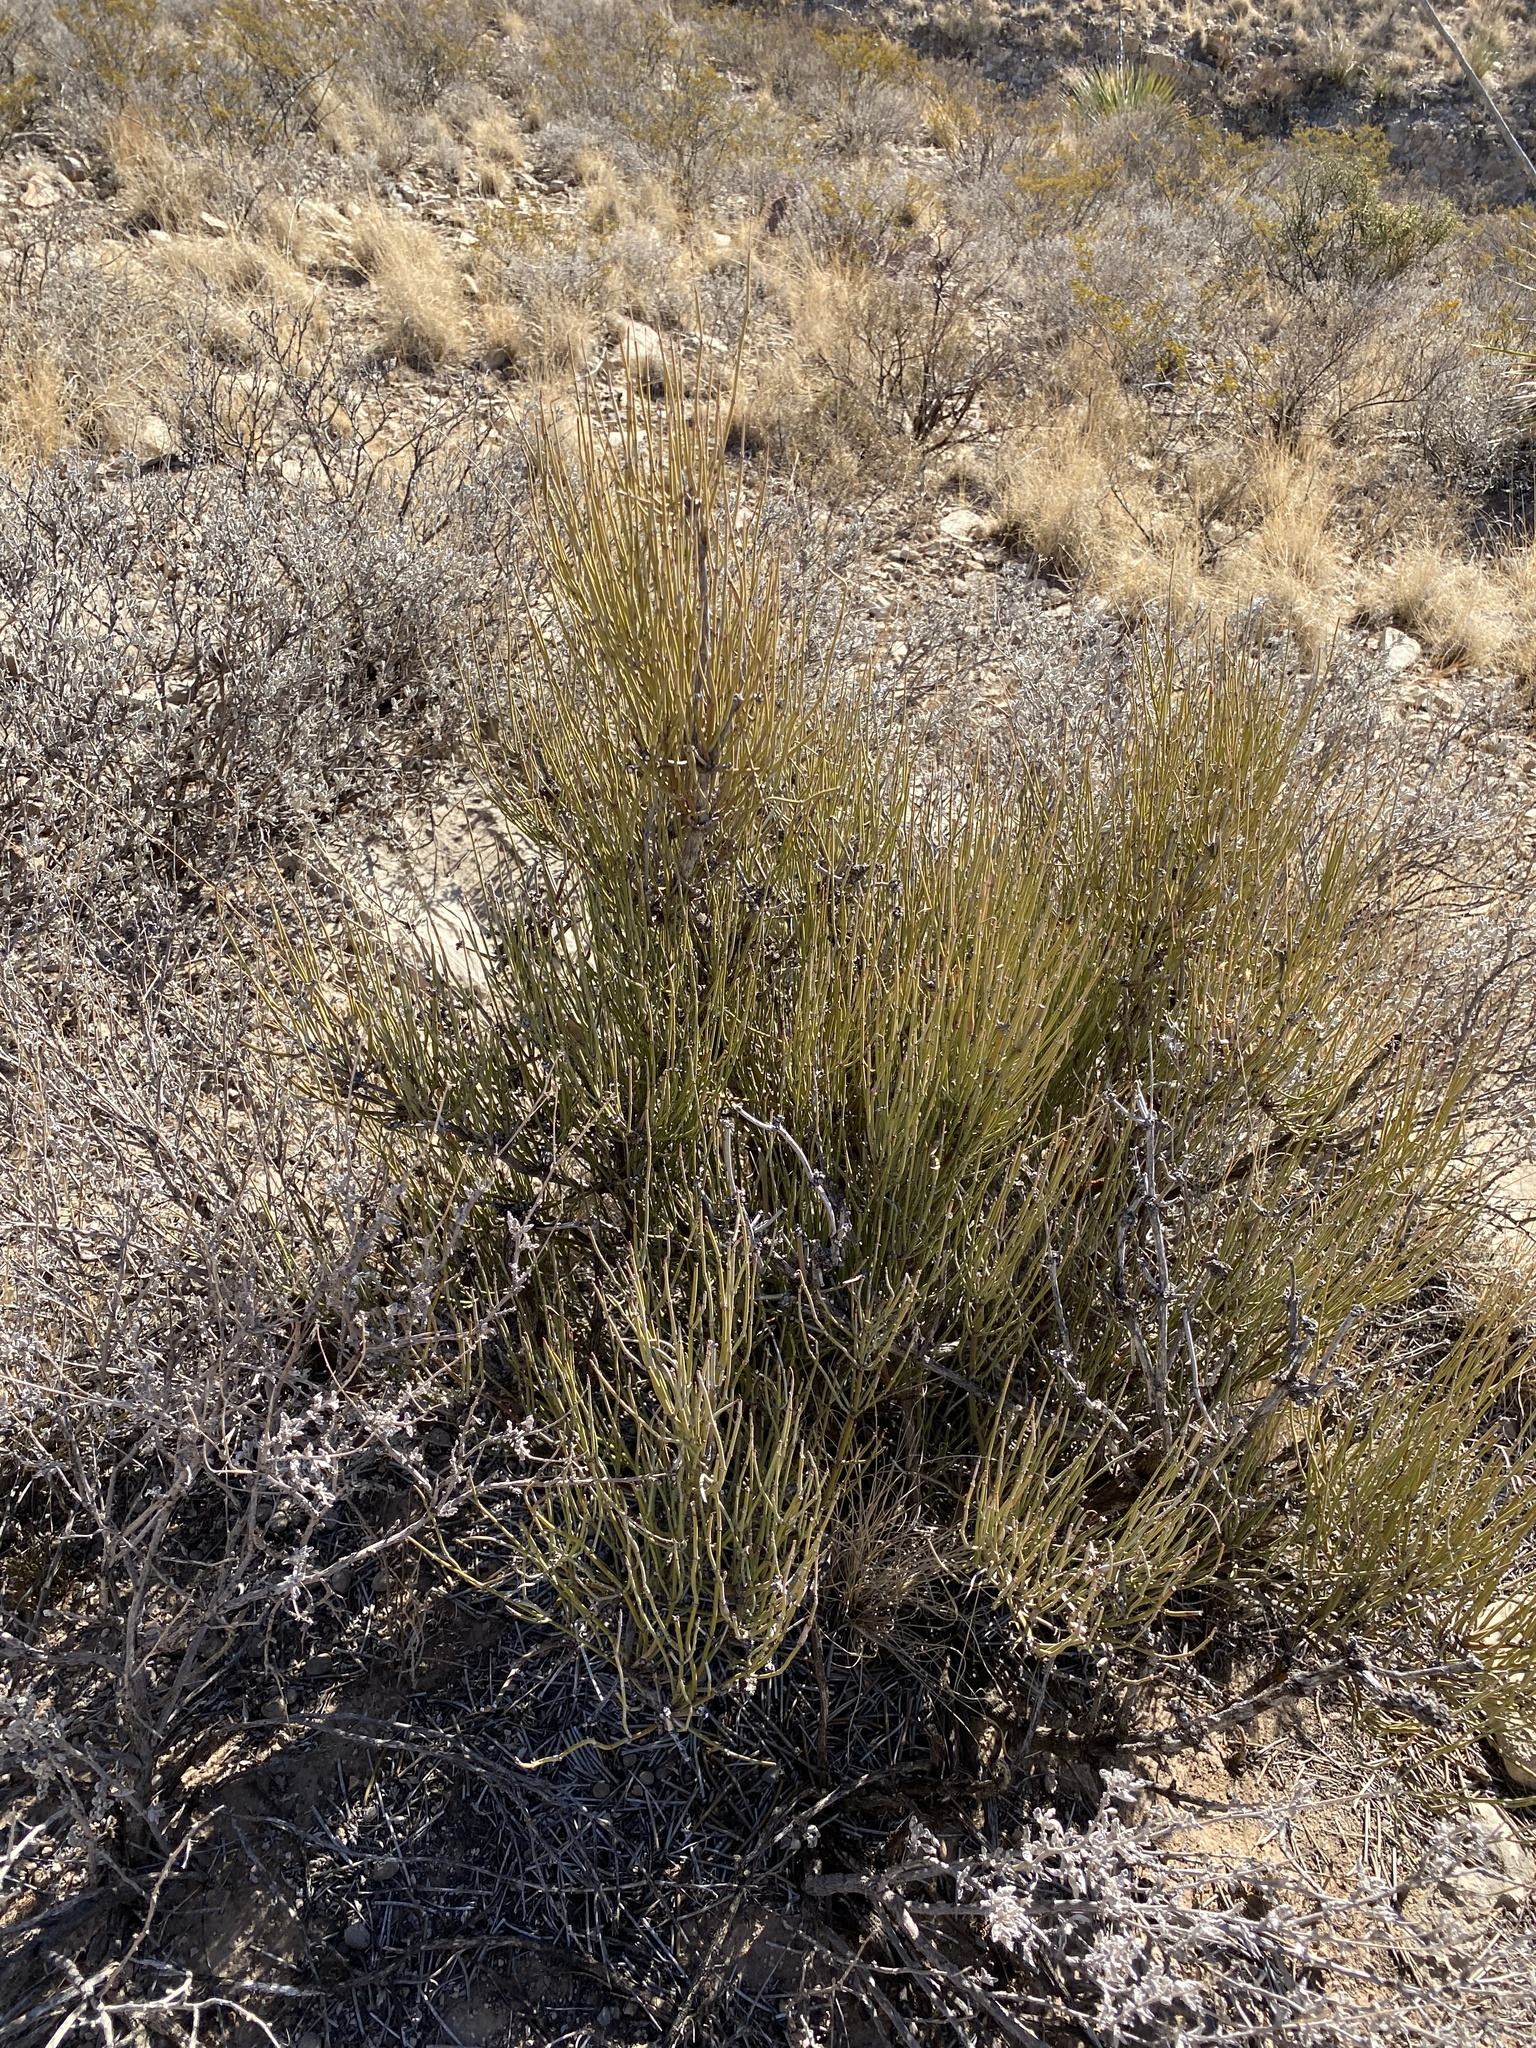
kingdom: Plantae
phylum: Tracheophyta
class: Gnetopsida
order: Ephedrales
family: Ephedraceae
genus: Ephedra
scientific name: Ephedra trifurca
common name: Mexican-tea
